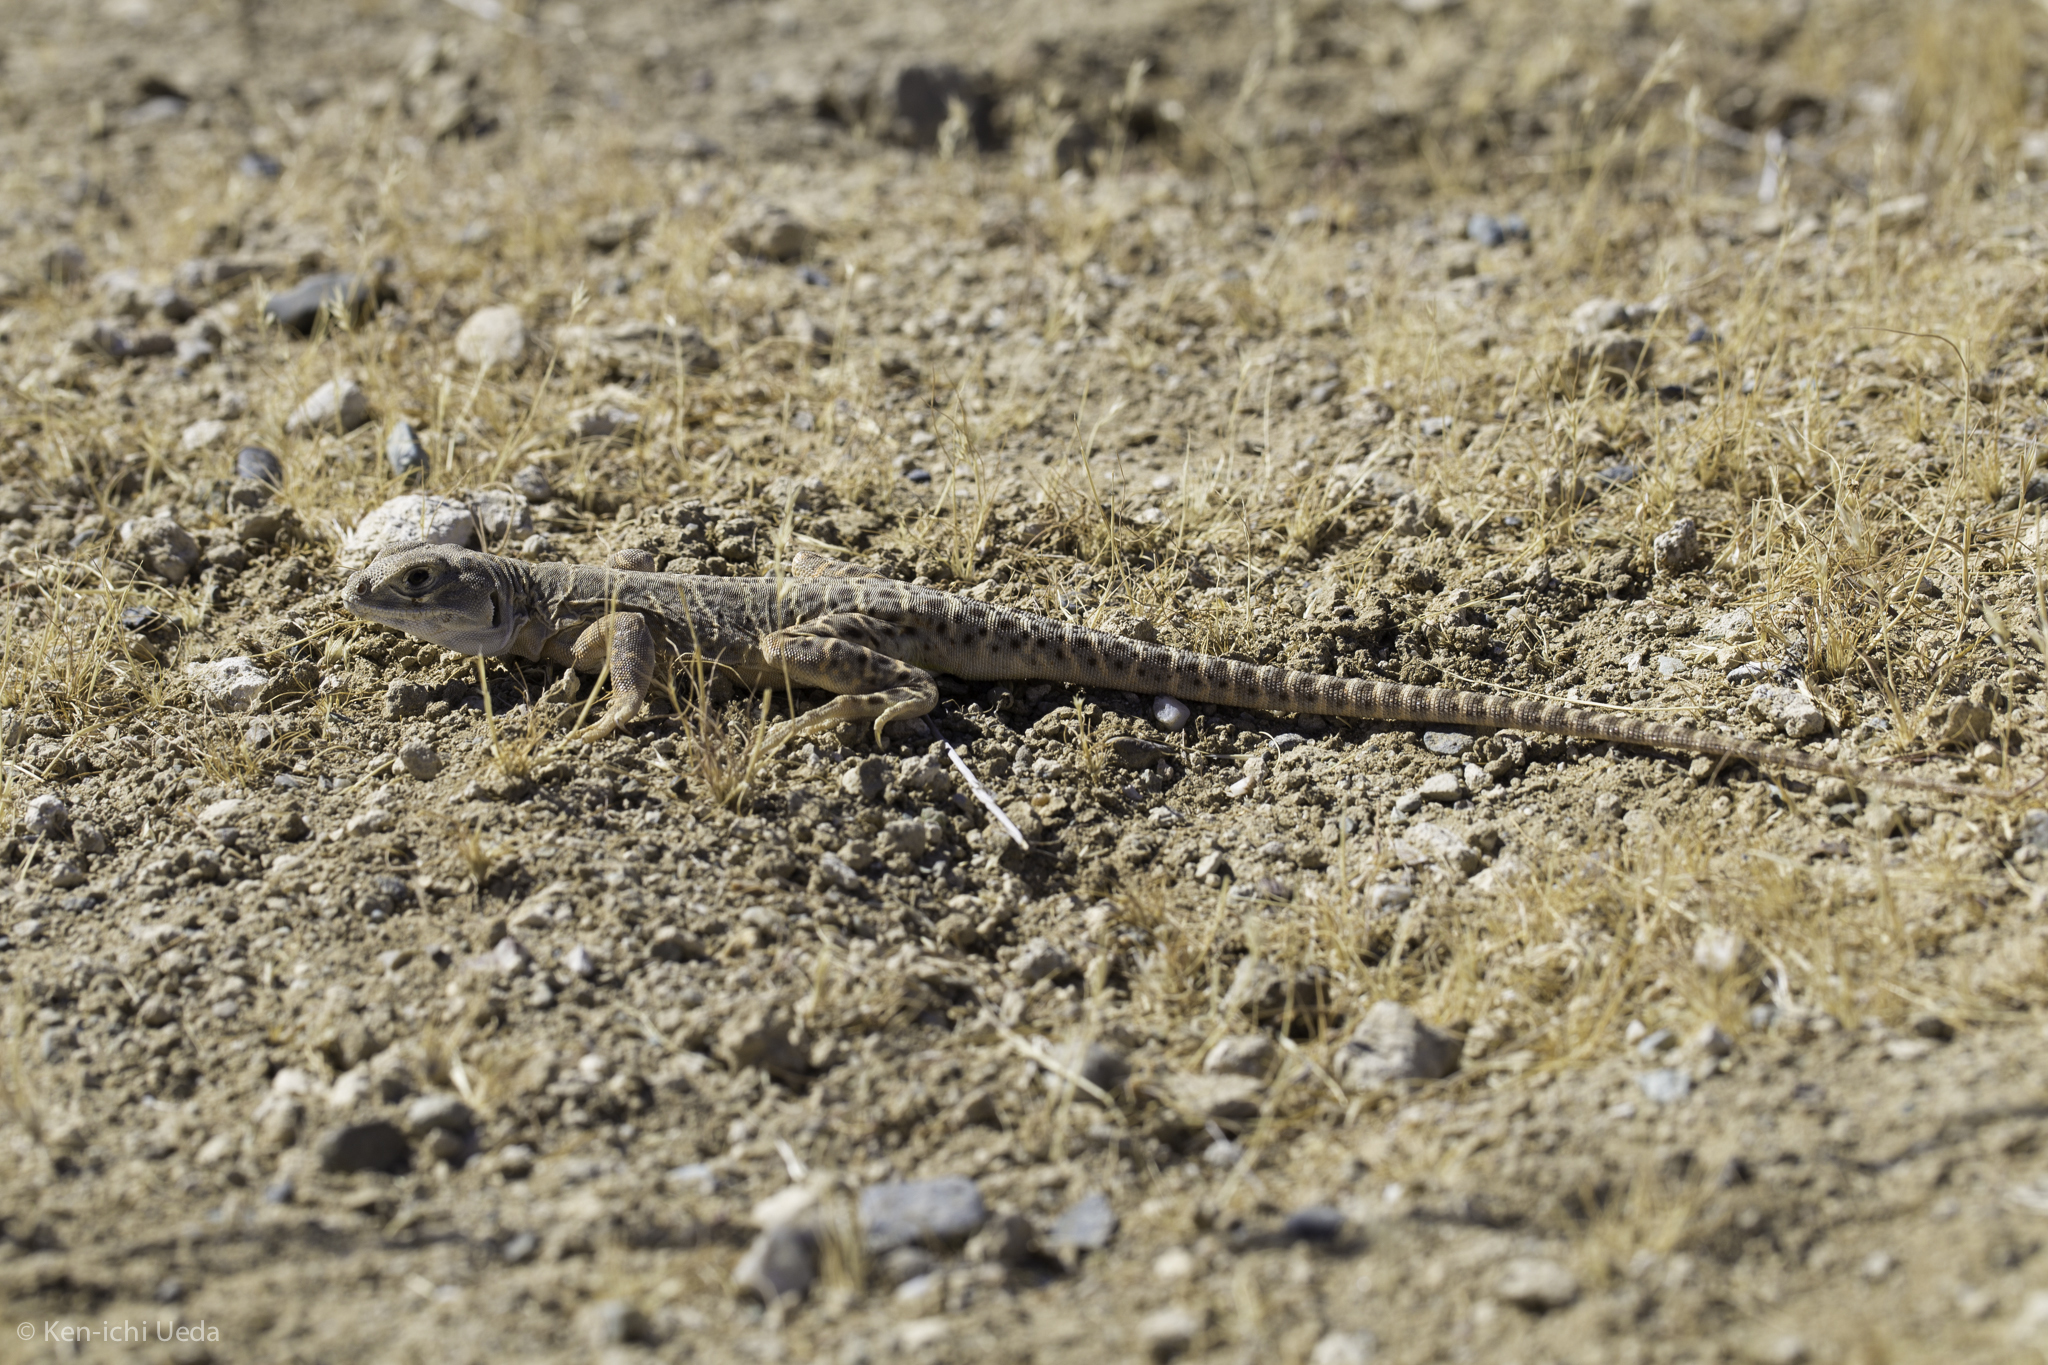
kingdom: Animalia
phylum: Chordata
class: Squamata
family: Crotaphytidae
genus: Gambelia
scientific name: Gambelia sila
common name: San joaquin leopard lizard
